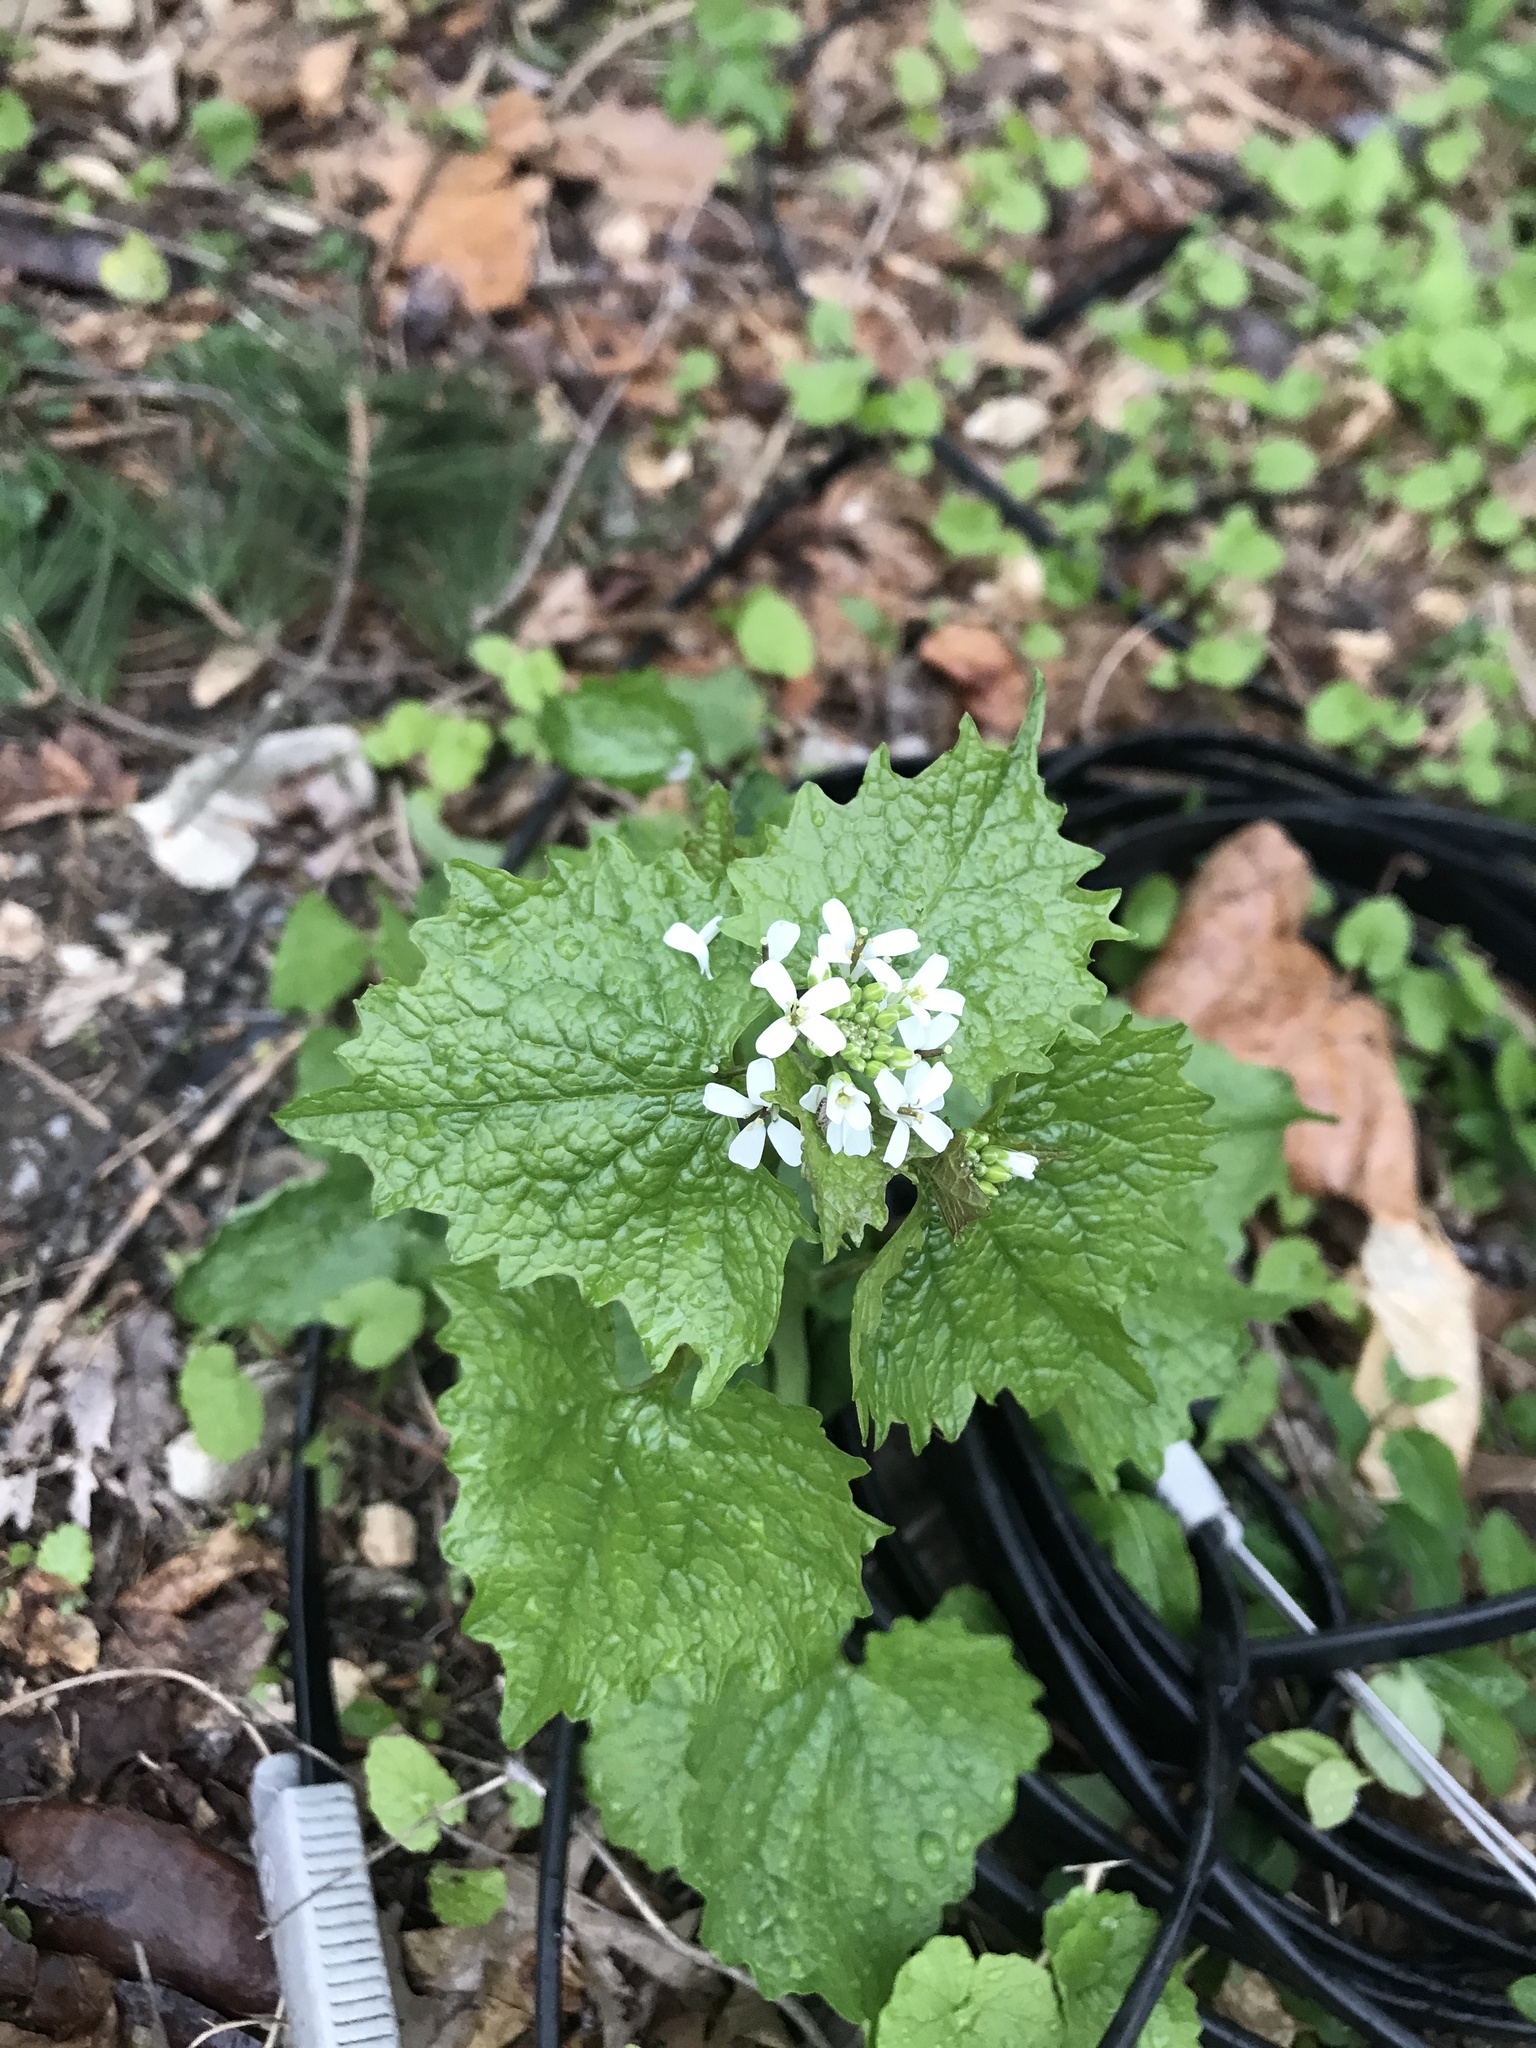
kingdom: Plantae
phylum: Tracheophyta
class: Magnoliopsida
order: Brassicales
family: Brassicaceae
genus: Alliaria
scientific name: Alliaria petiolata
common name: Garlic mustard
